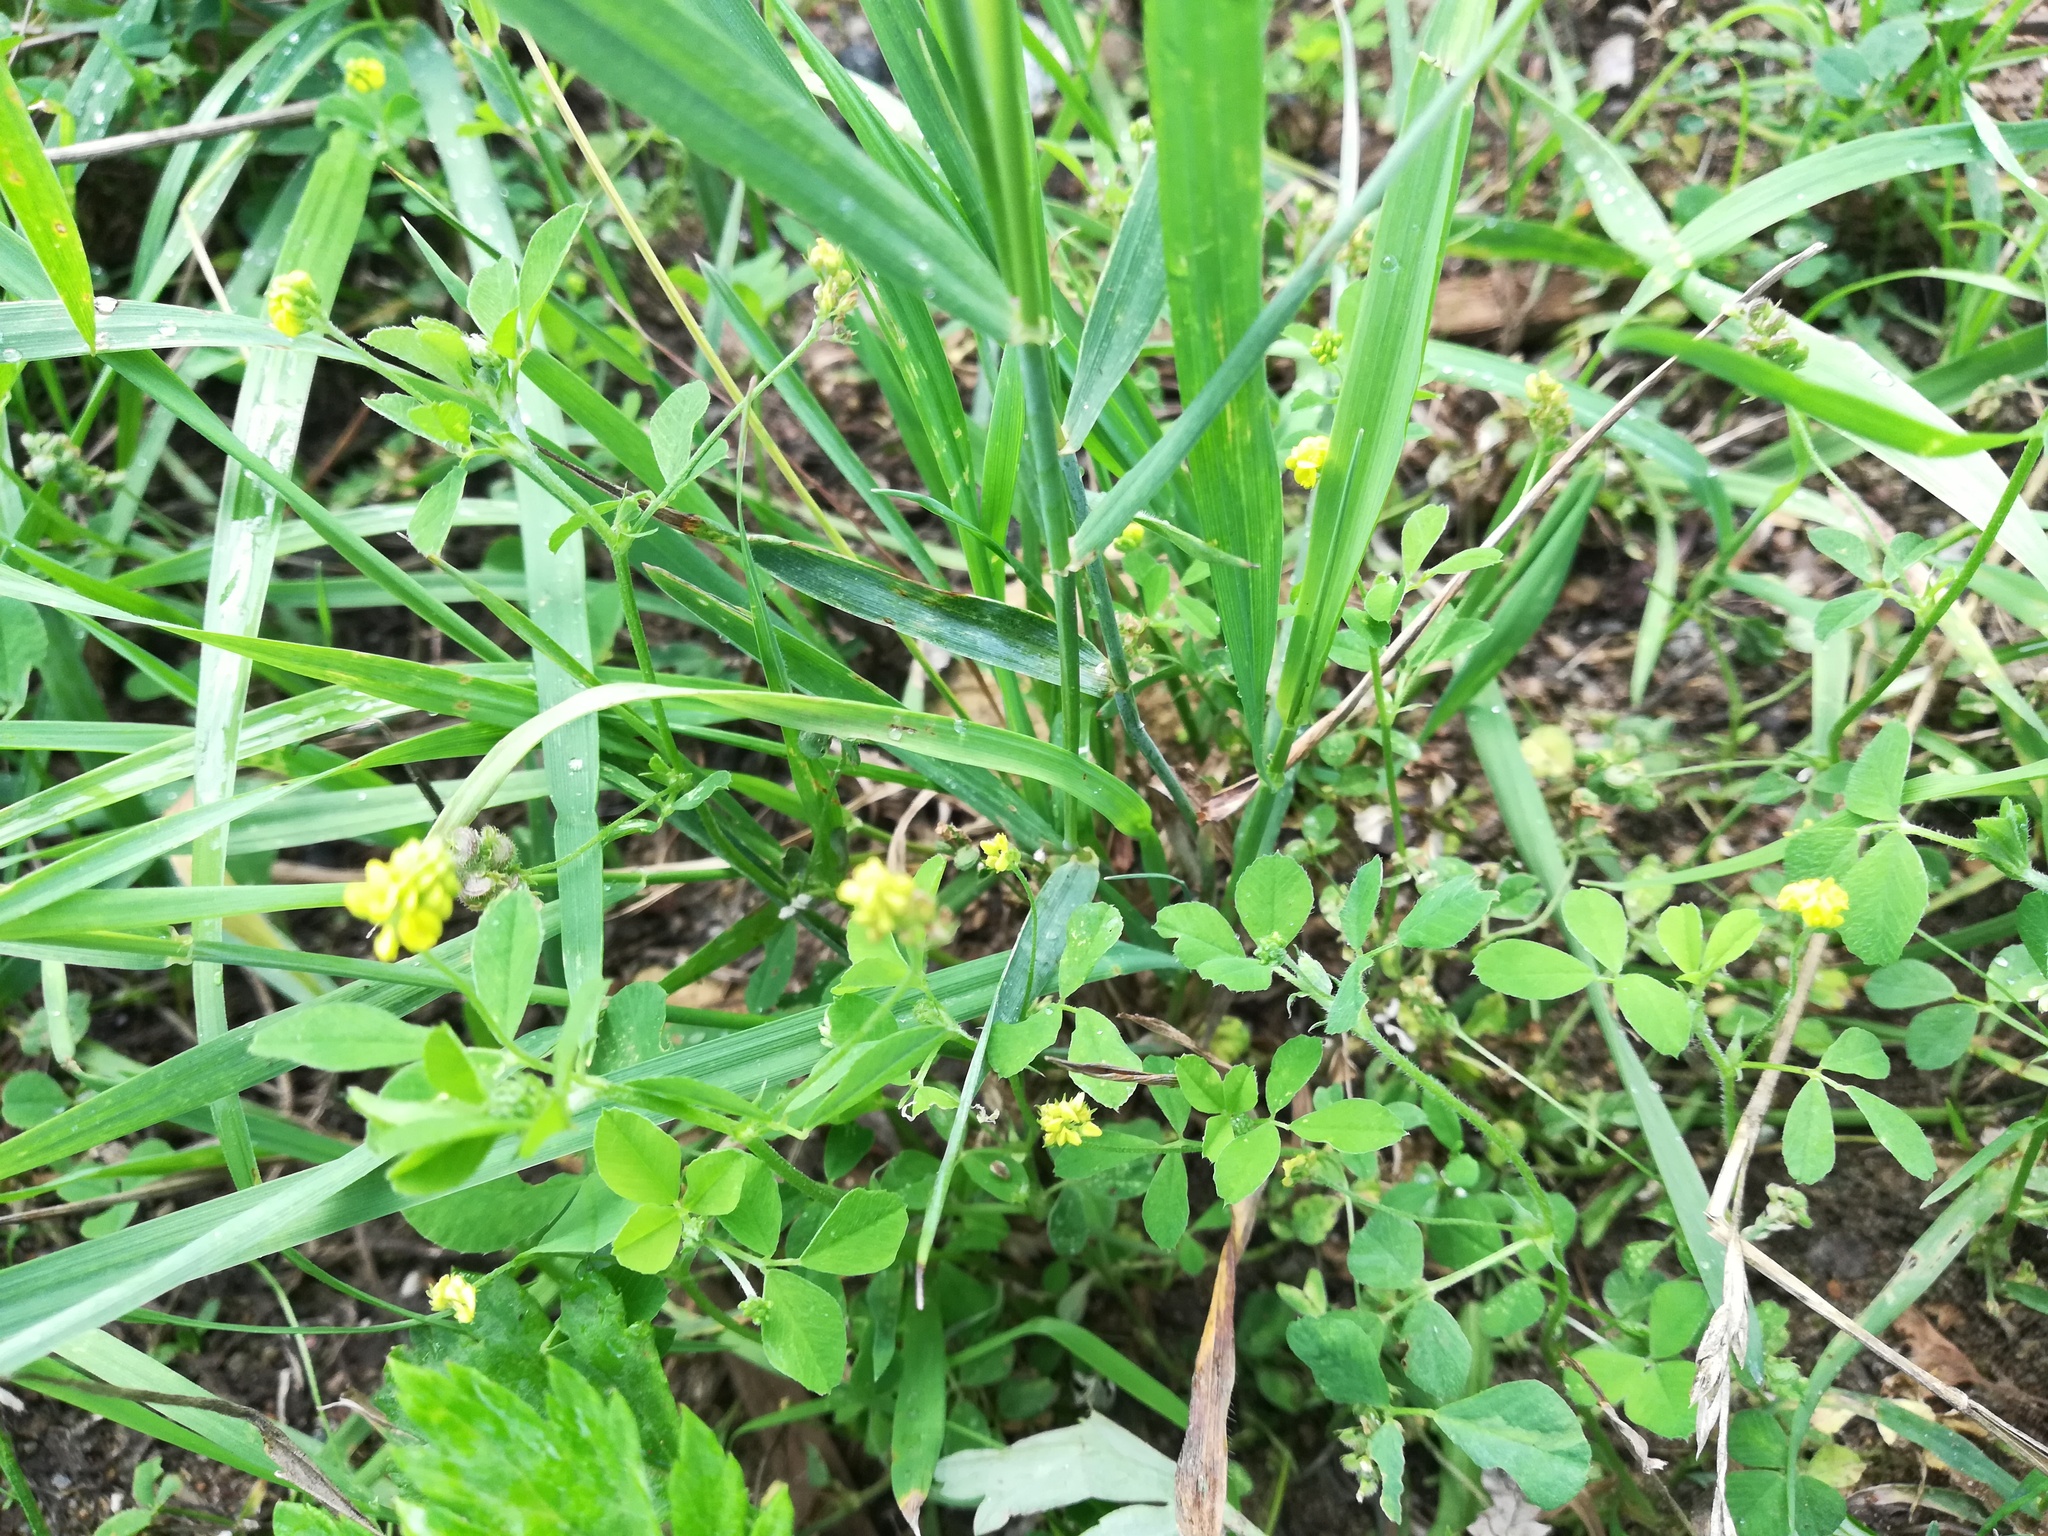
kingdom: Plantae
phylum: Tracheophyta
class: Magnoliopsida
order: Fabales
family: Fabaceae
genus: Medicago
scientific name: Medicago lupulina
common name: Black medick
